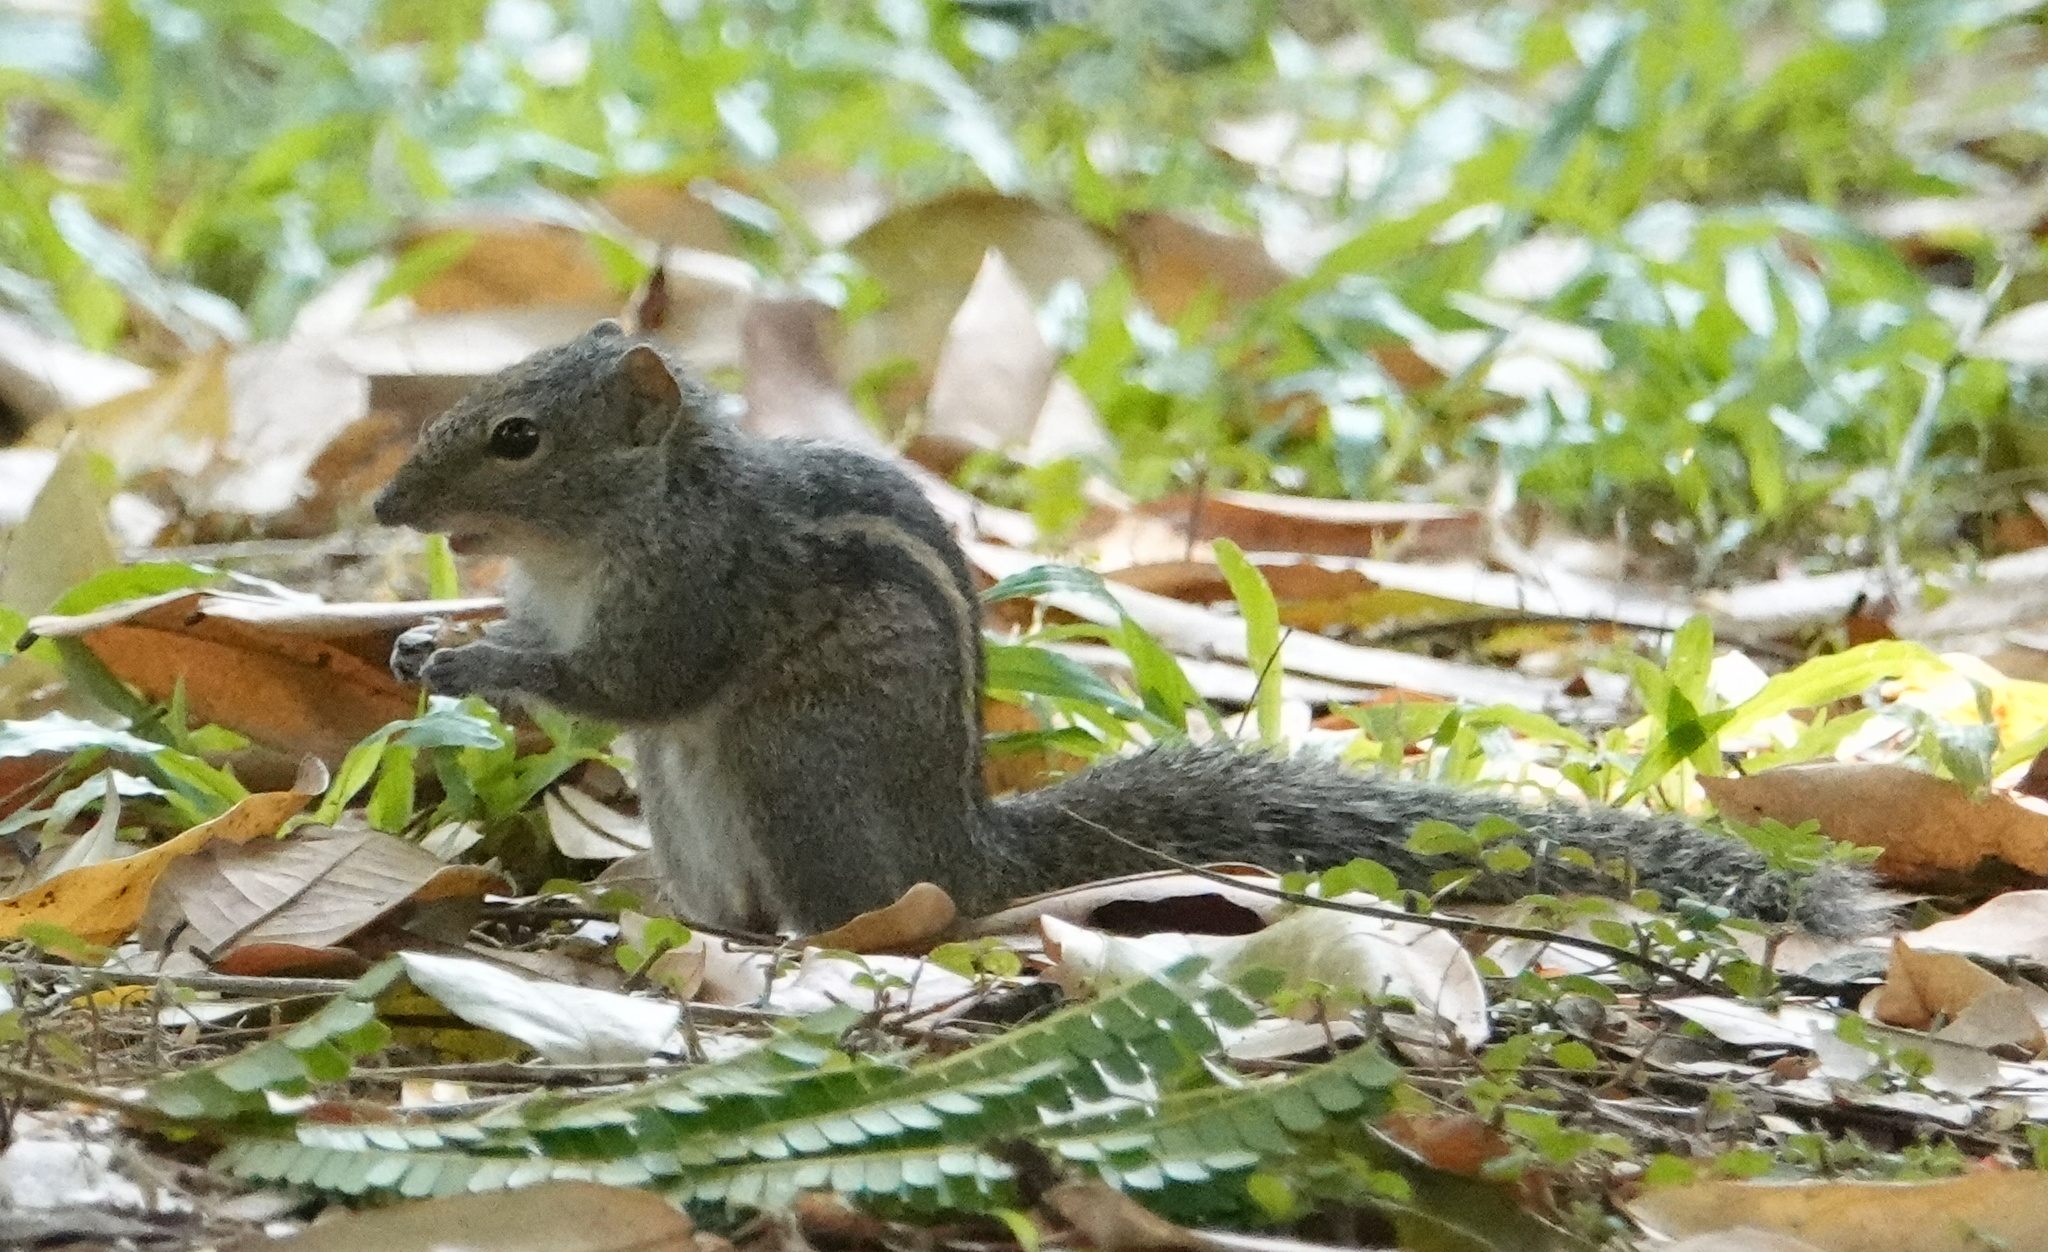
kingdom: Animalia
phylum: Chordata
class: Mammalia
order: Rodentia
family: Sciuridae
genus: Funambulus
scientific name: Funambulus palmarum
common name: Indian palm squirrel
